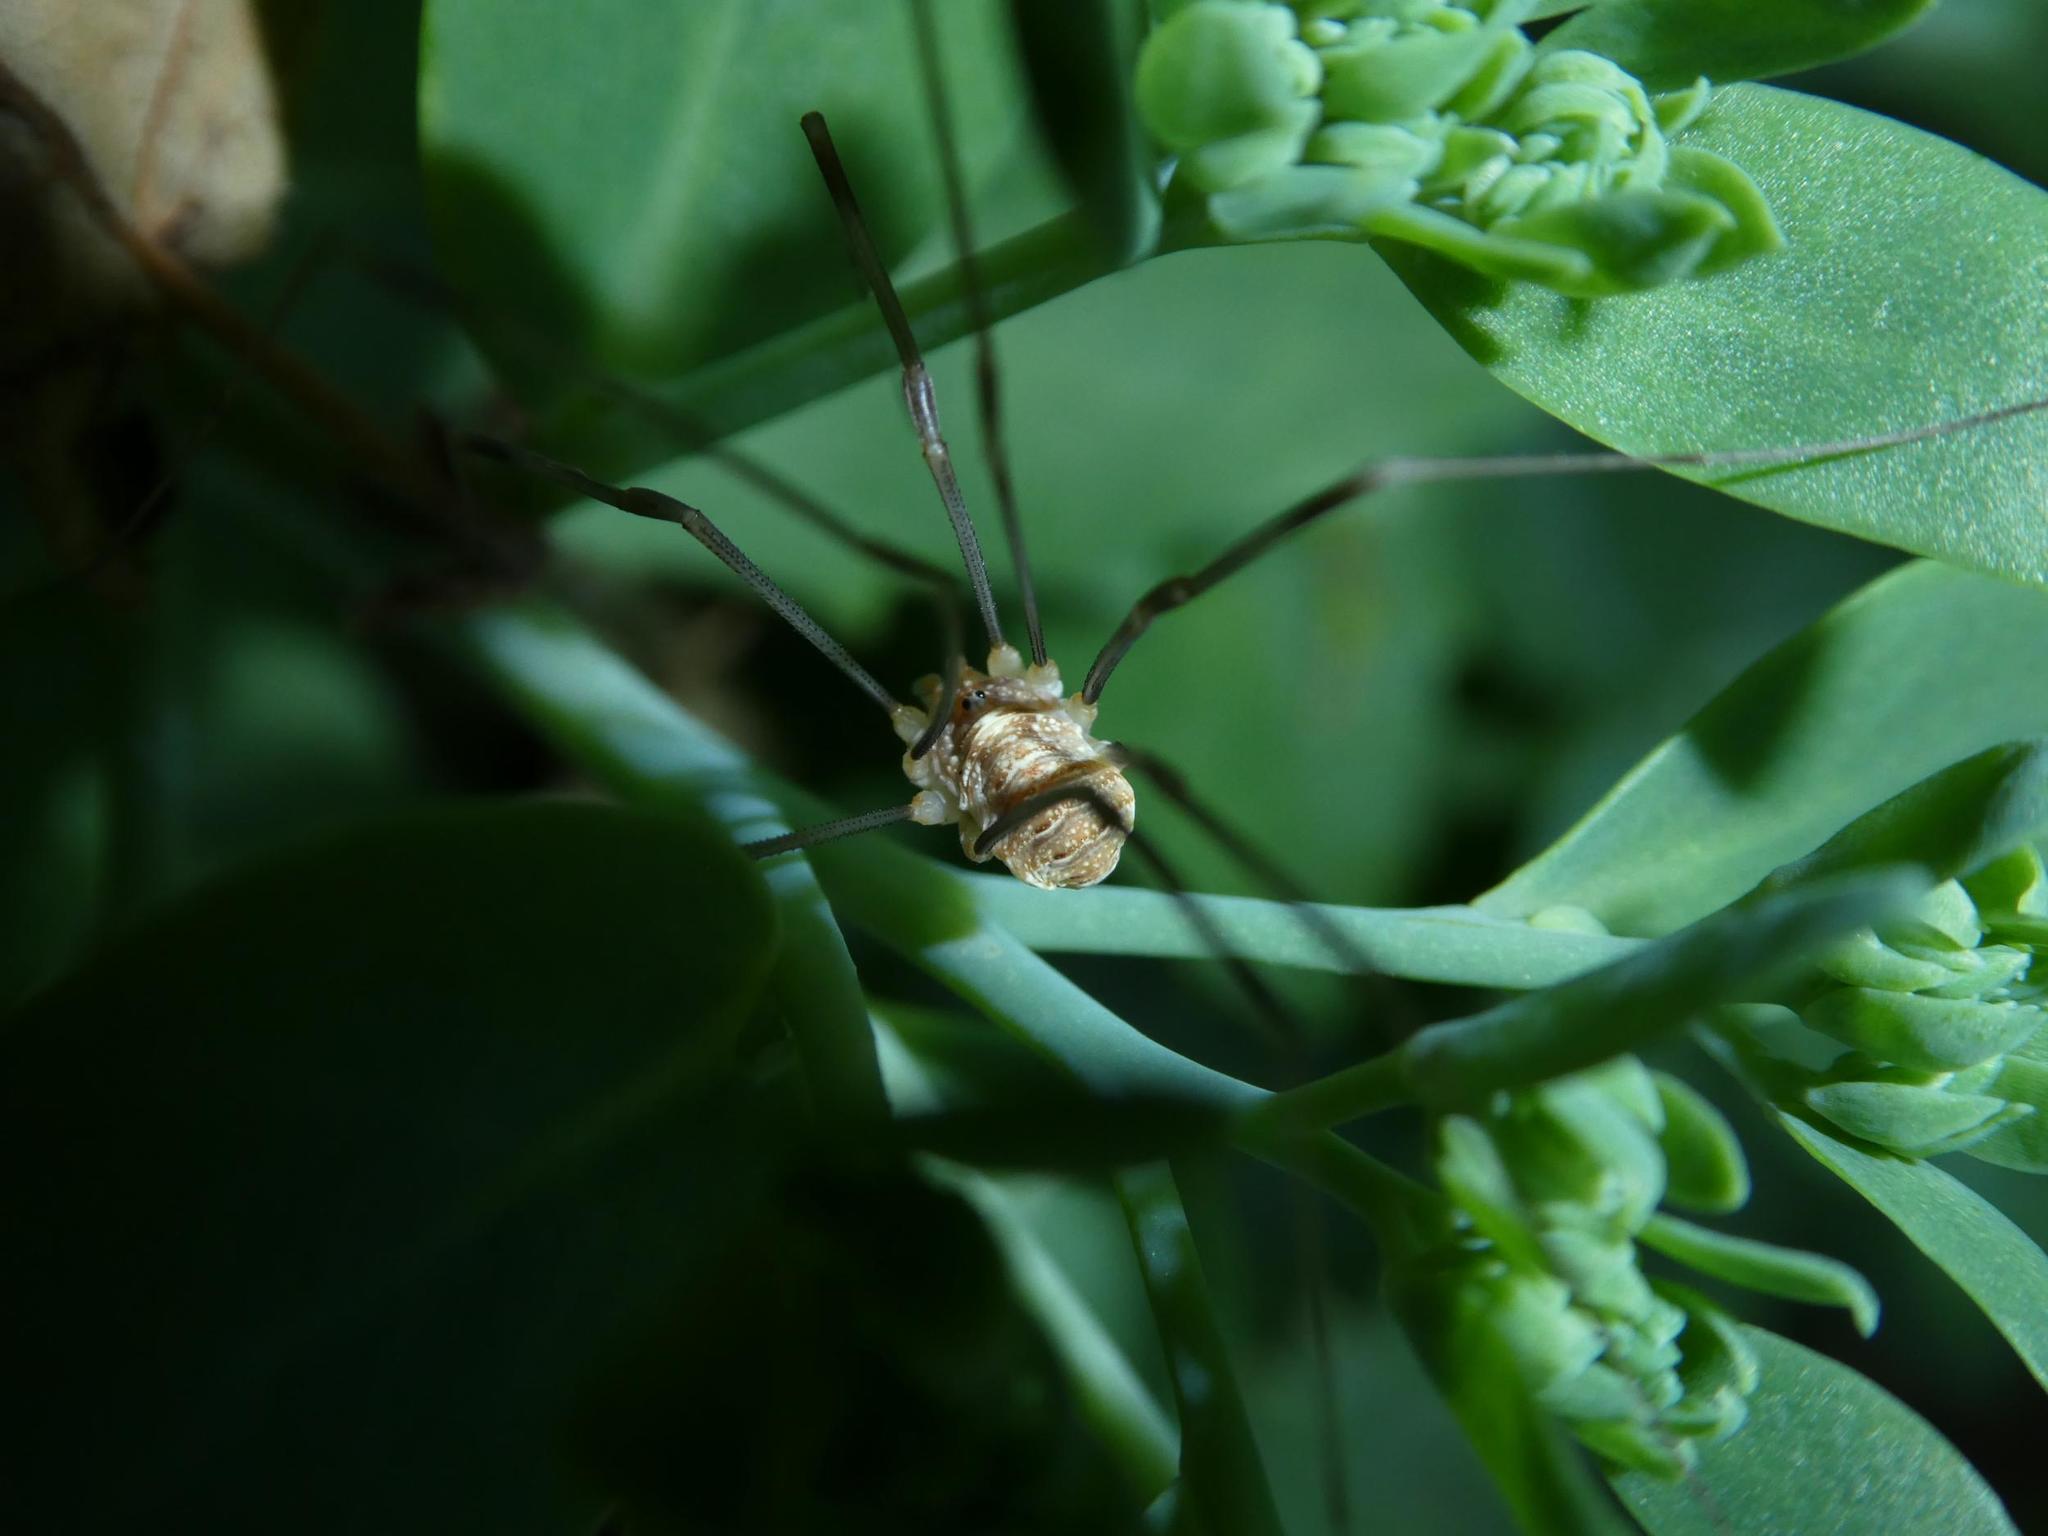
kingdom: Animalia
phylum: Arthropoda
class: Arachnida
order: Opiliones
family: Phalangiidae
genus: Opilio
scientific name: Opilio canestrinii
